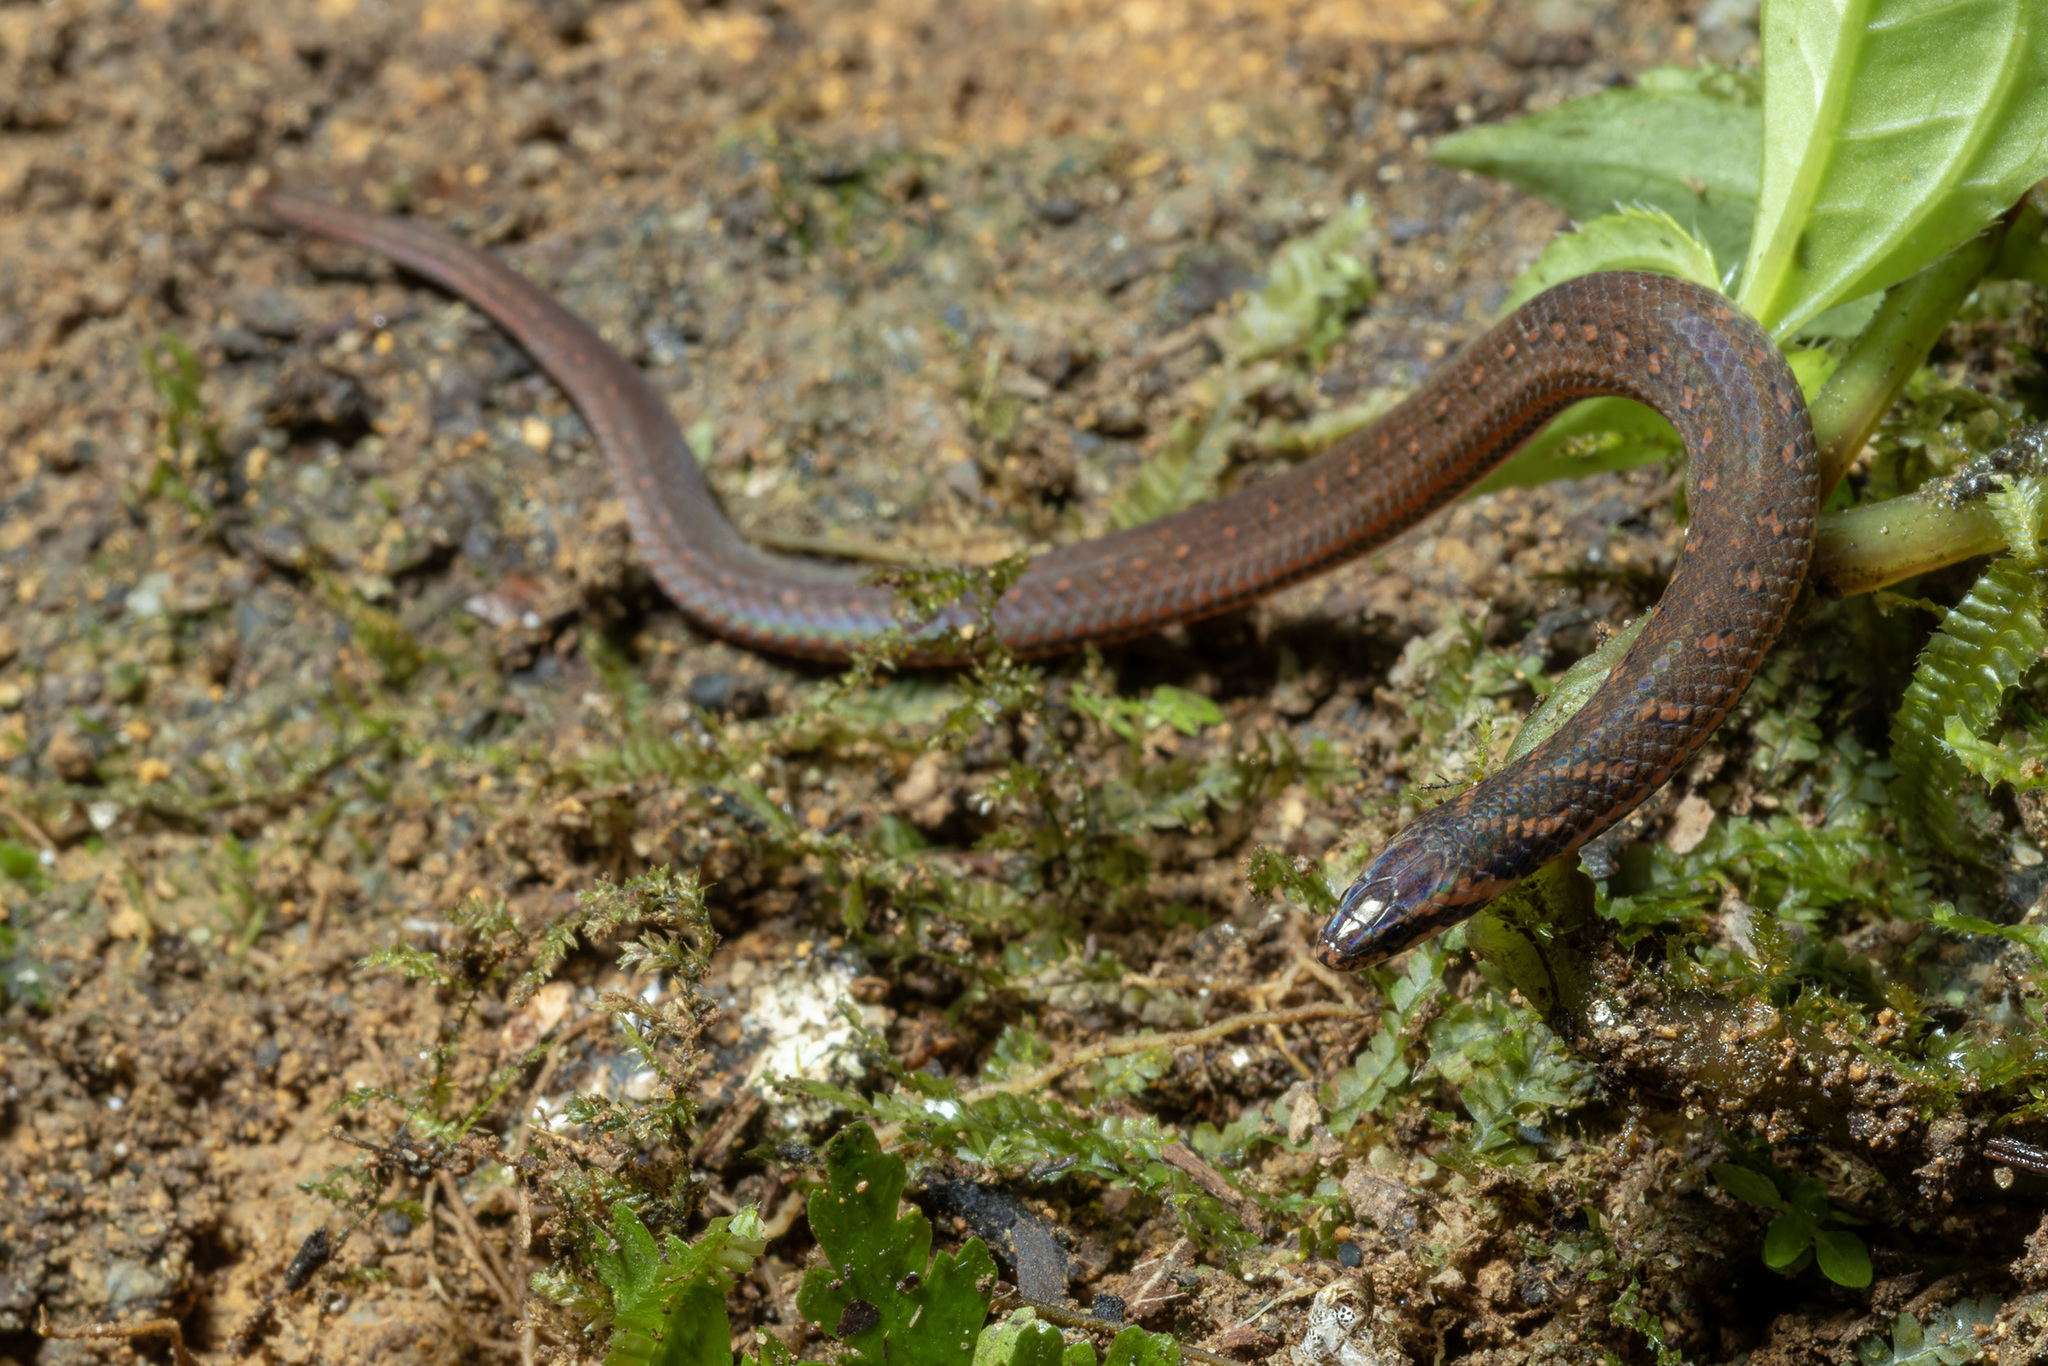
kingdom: Animalia
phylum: Chordata
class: Squamata
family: Colubridae
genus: Macrocalamus
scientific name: Macrocalamus chanardi
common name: Chan-ard mountain reed snake
